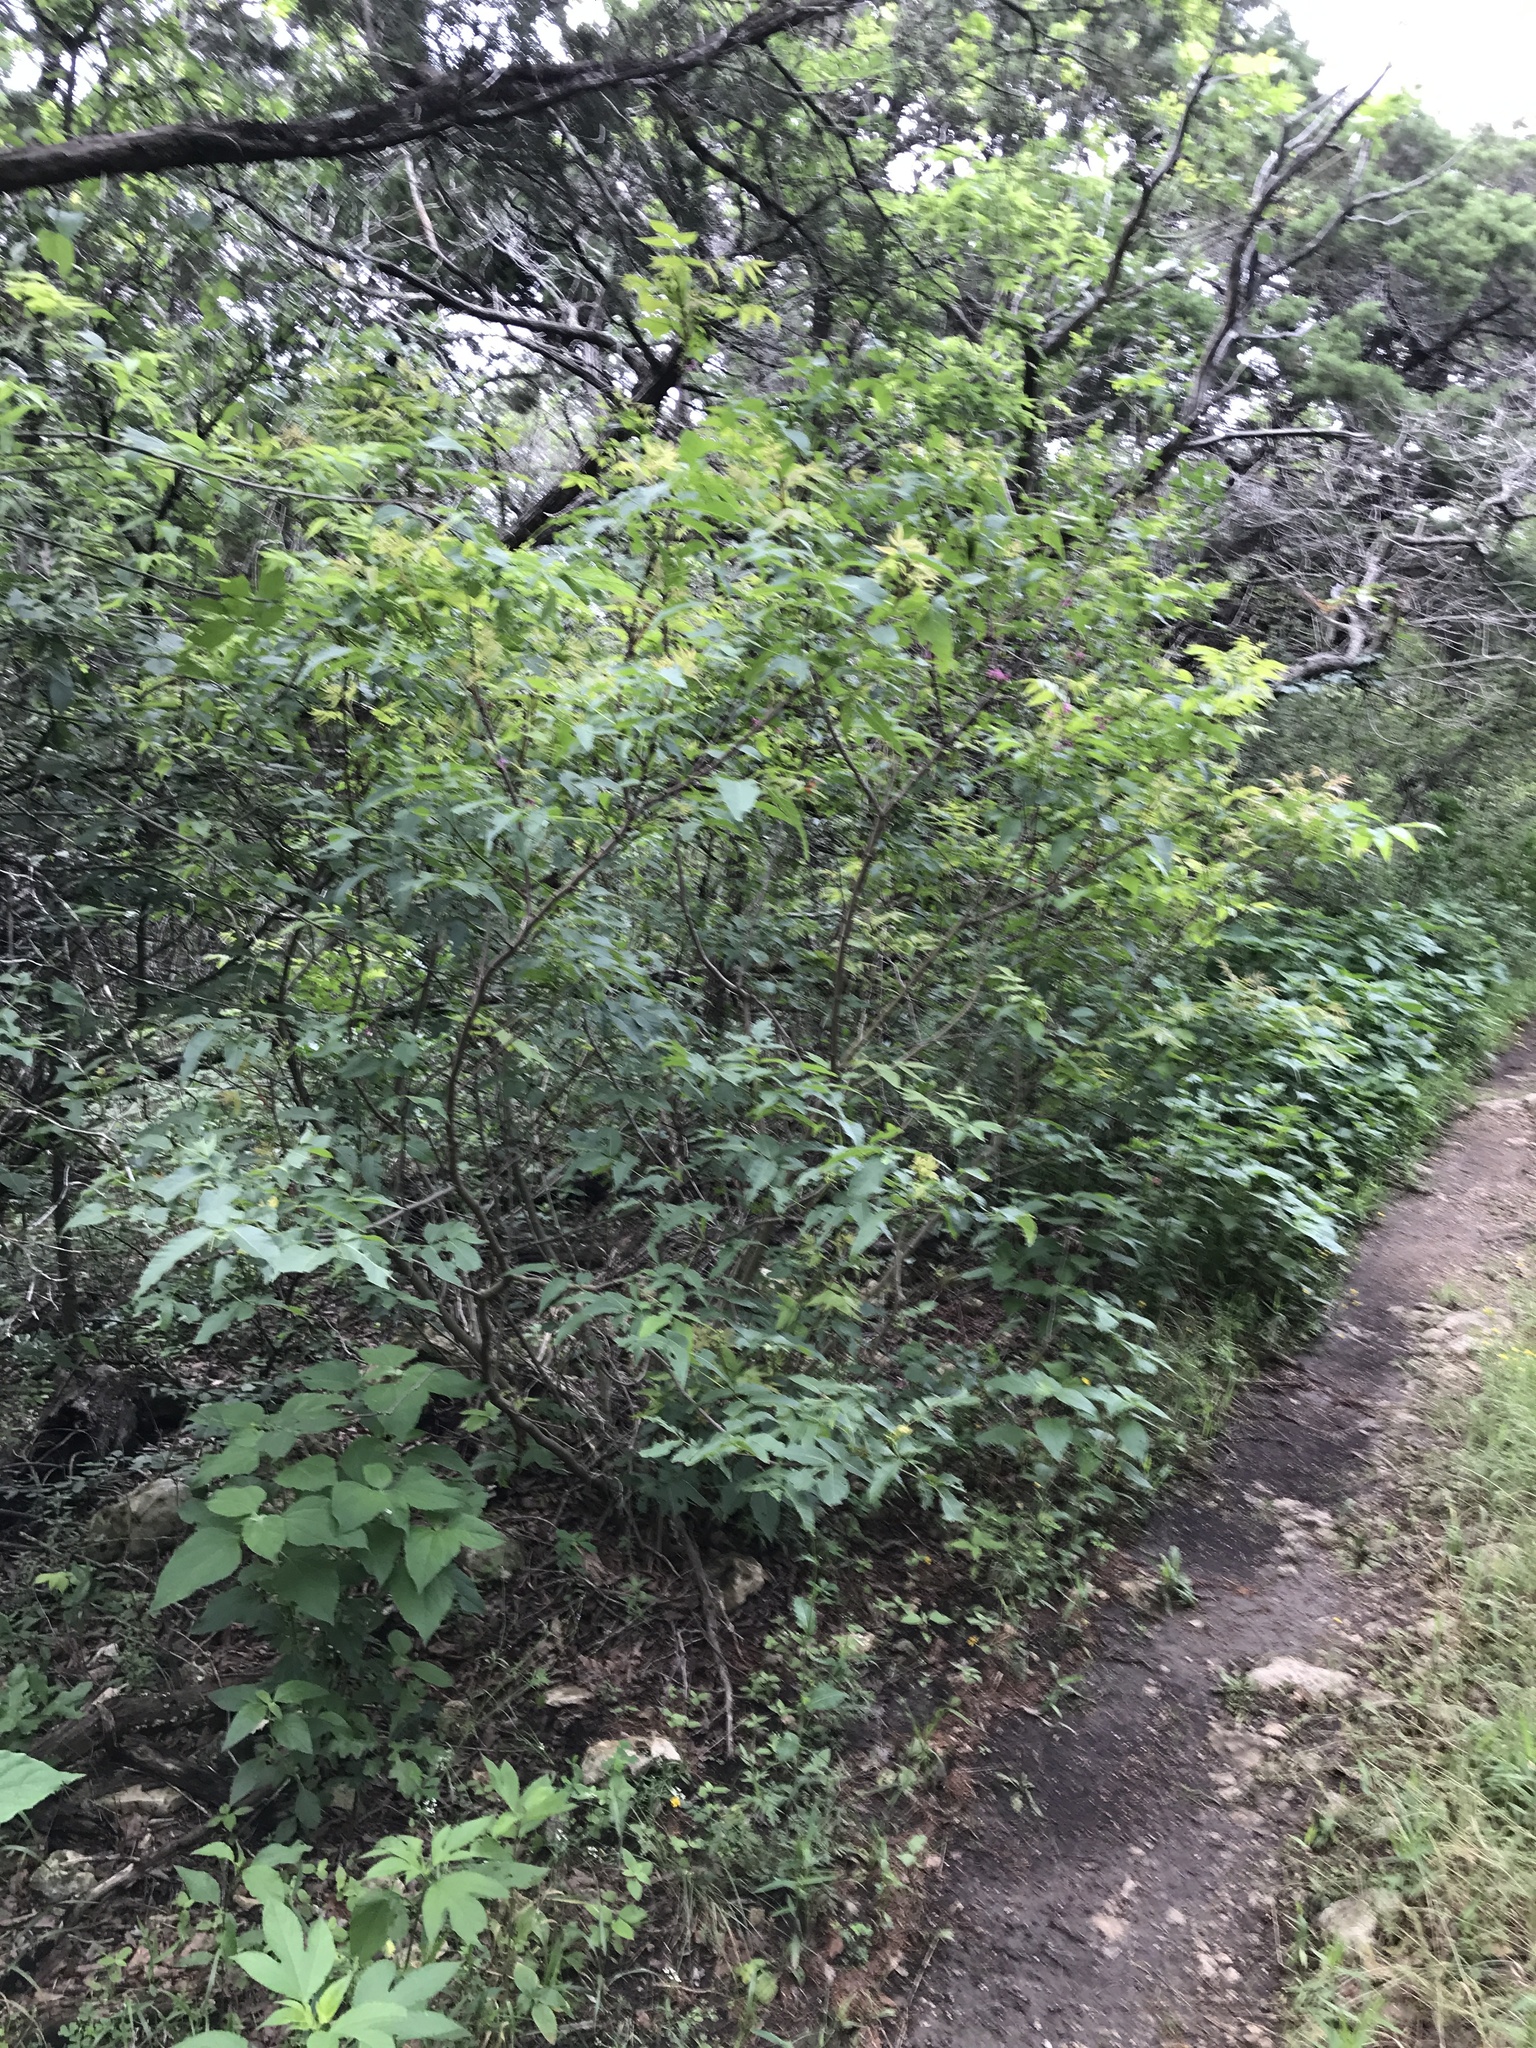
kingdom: Plantae
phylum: Tracheophyta
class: Magnoliopsida
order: Sapindales
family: Sapindaceae
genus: Ungnadia
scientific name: Ungnadia speciosa
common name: Texas-buckeye
